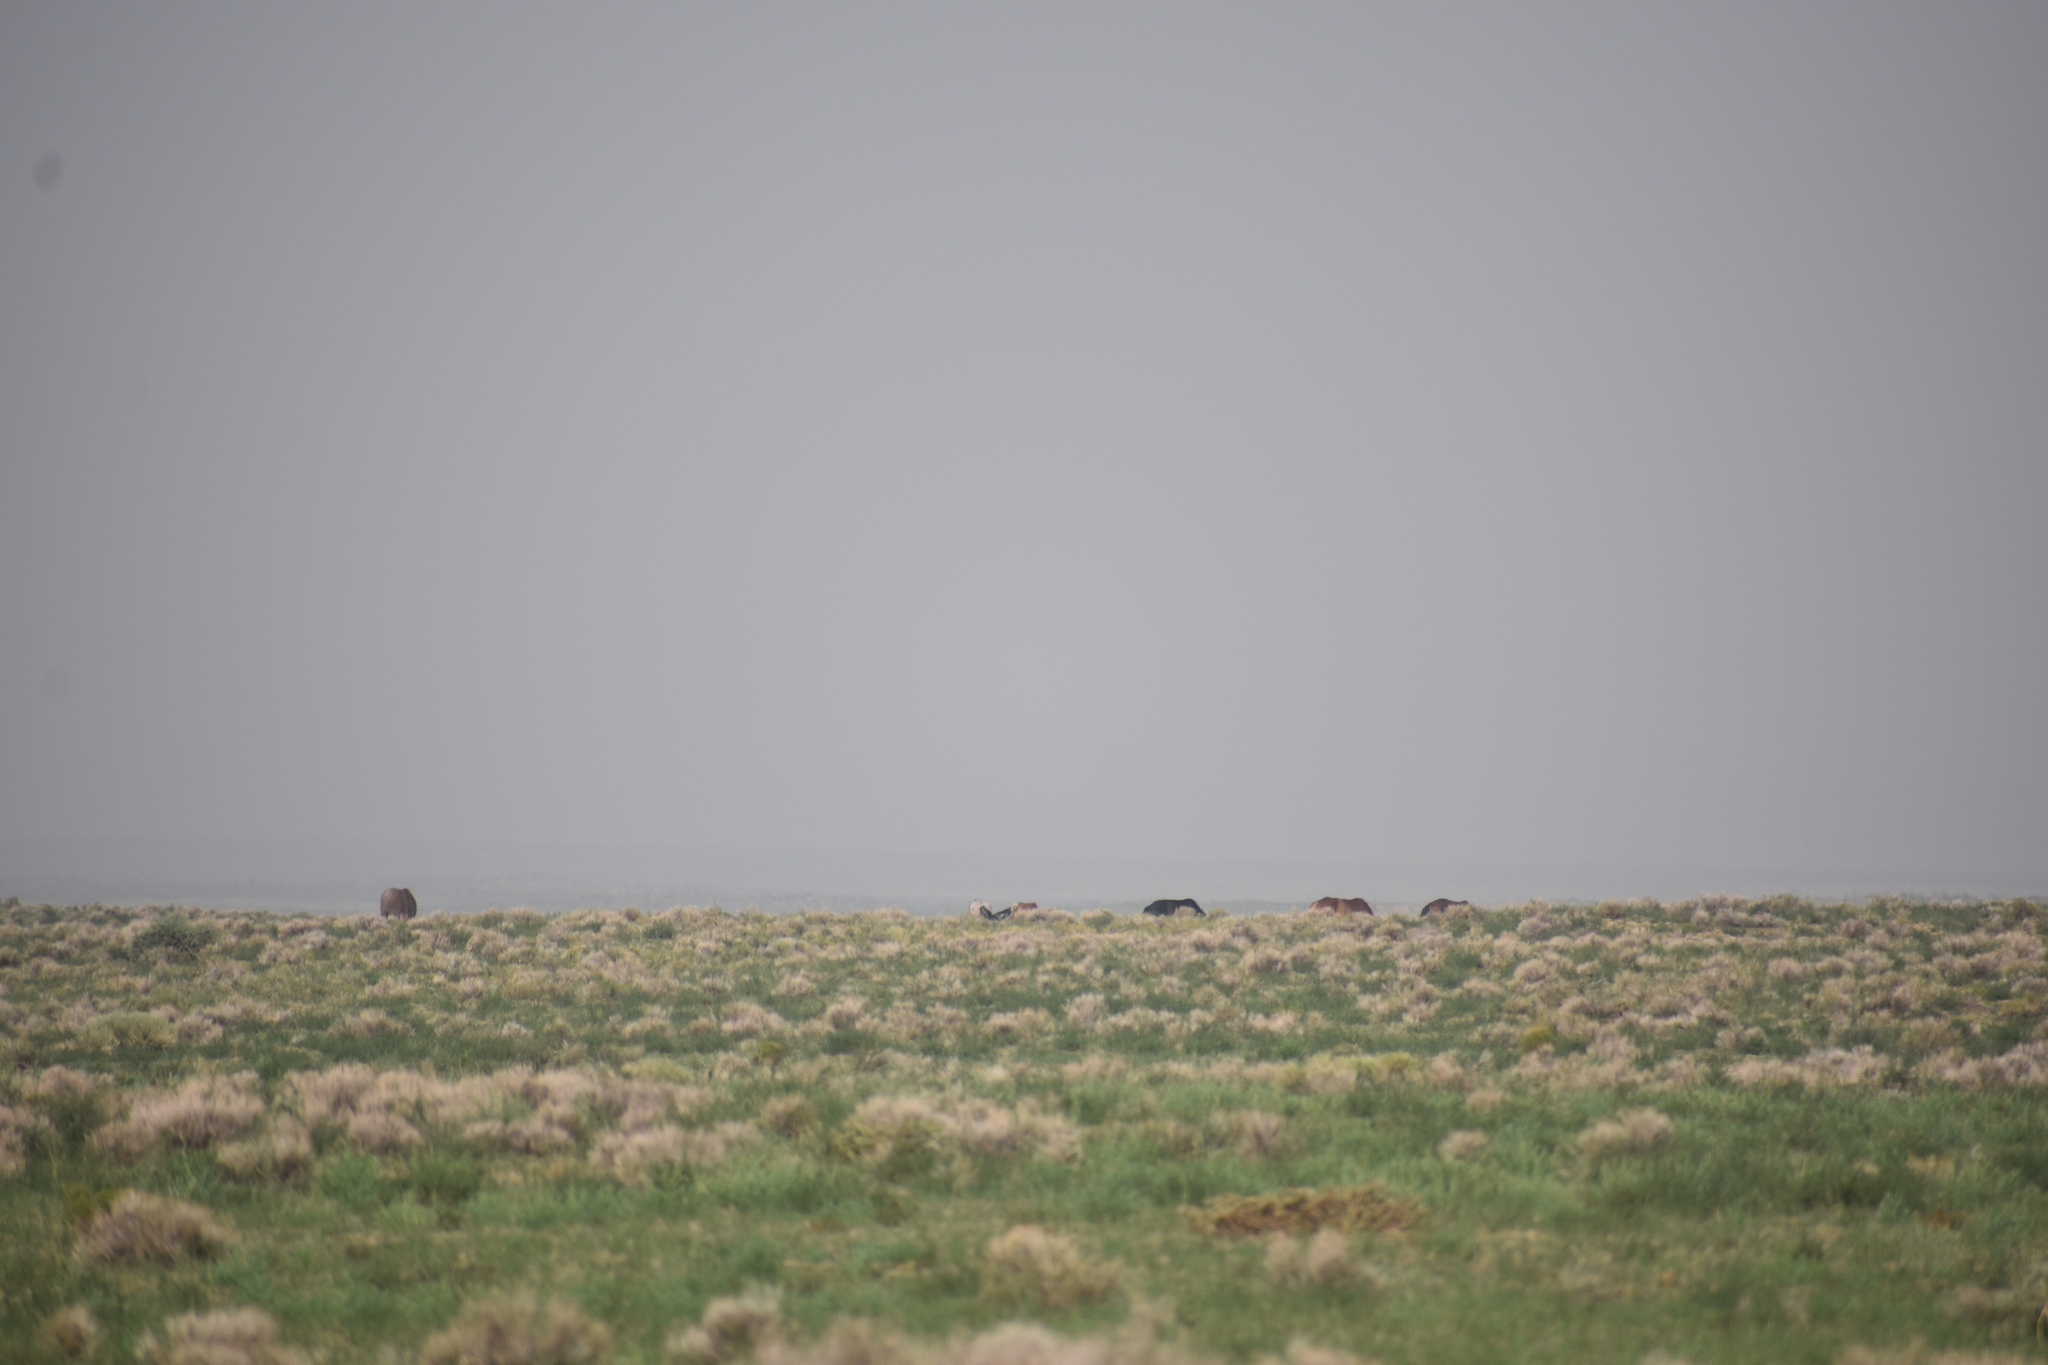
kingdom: Animalia
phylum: Chordata
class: Mammalia
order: Perissodactyla
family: Equidae
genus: Equus
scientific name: Equus caballus
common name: Horse
